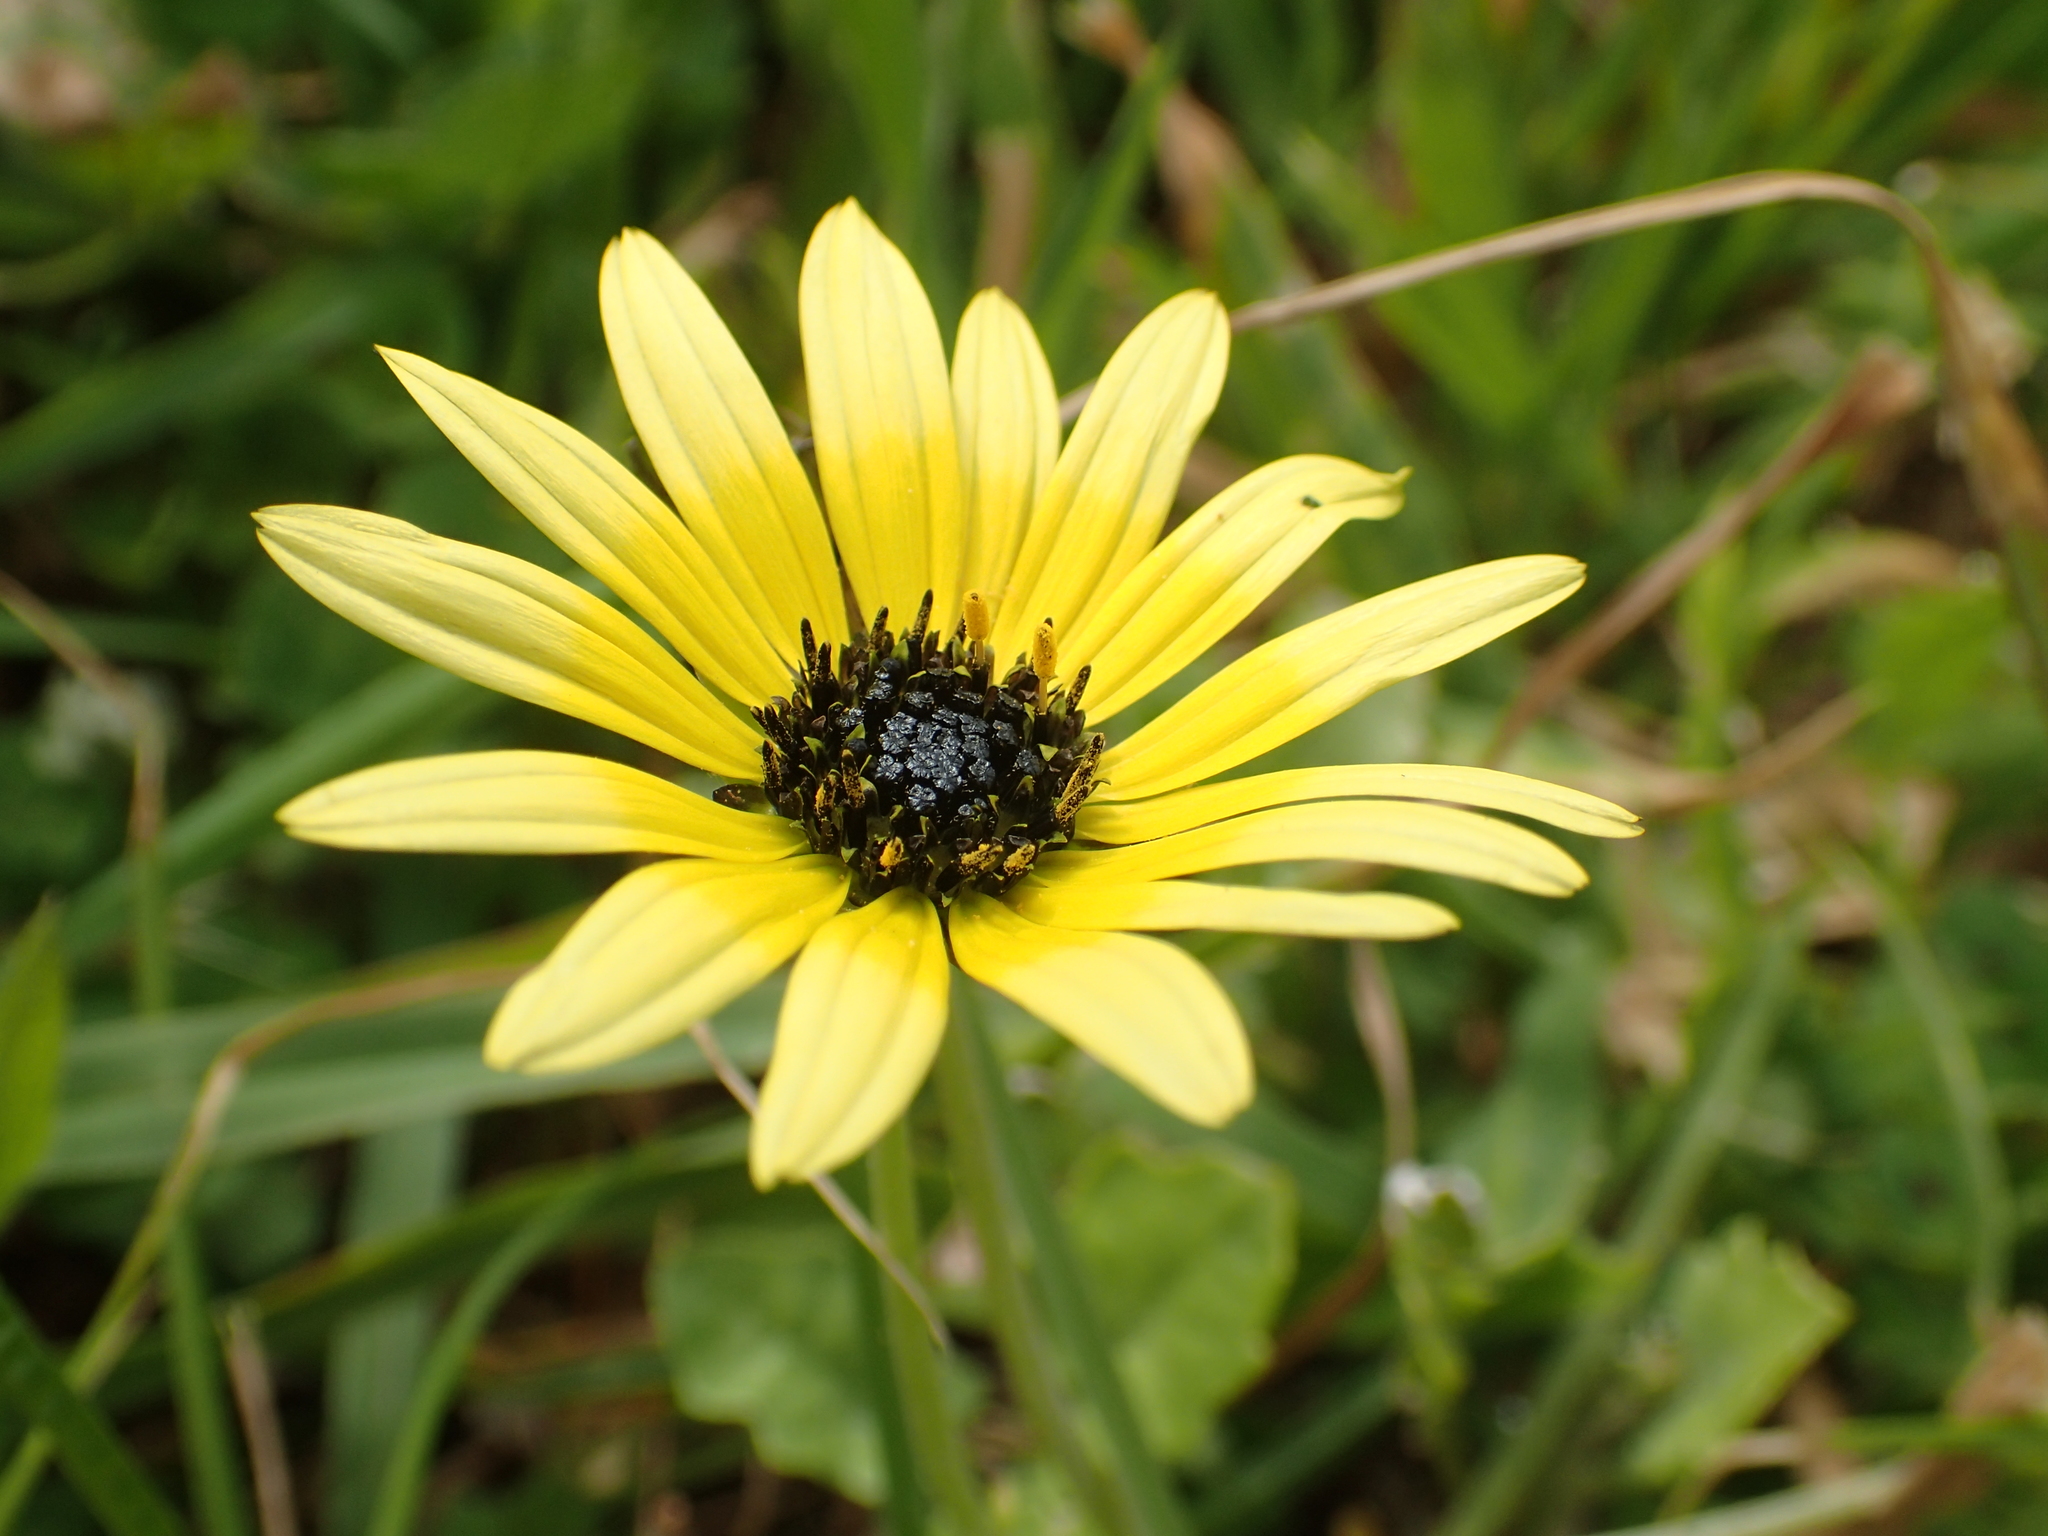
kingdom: Plantae
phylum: Tracheophyta
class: Magnoliopsida
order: Asterales
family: Asteraceae
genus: Arctotheca
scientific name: Arctotheca calendula
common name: Capeweed
